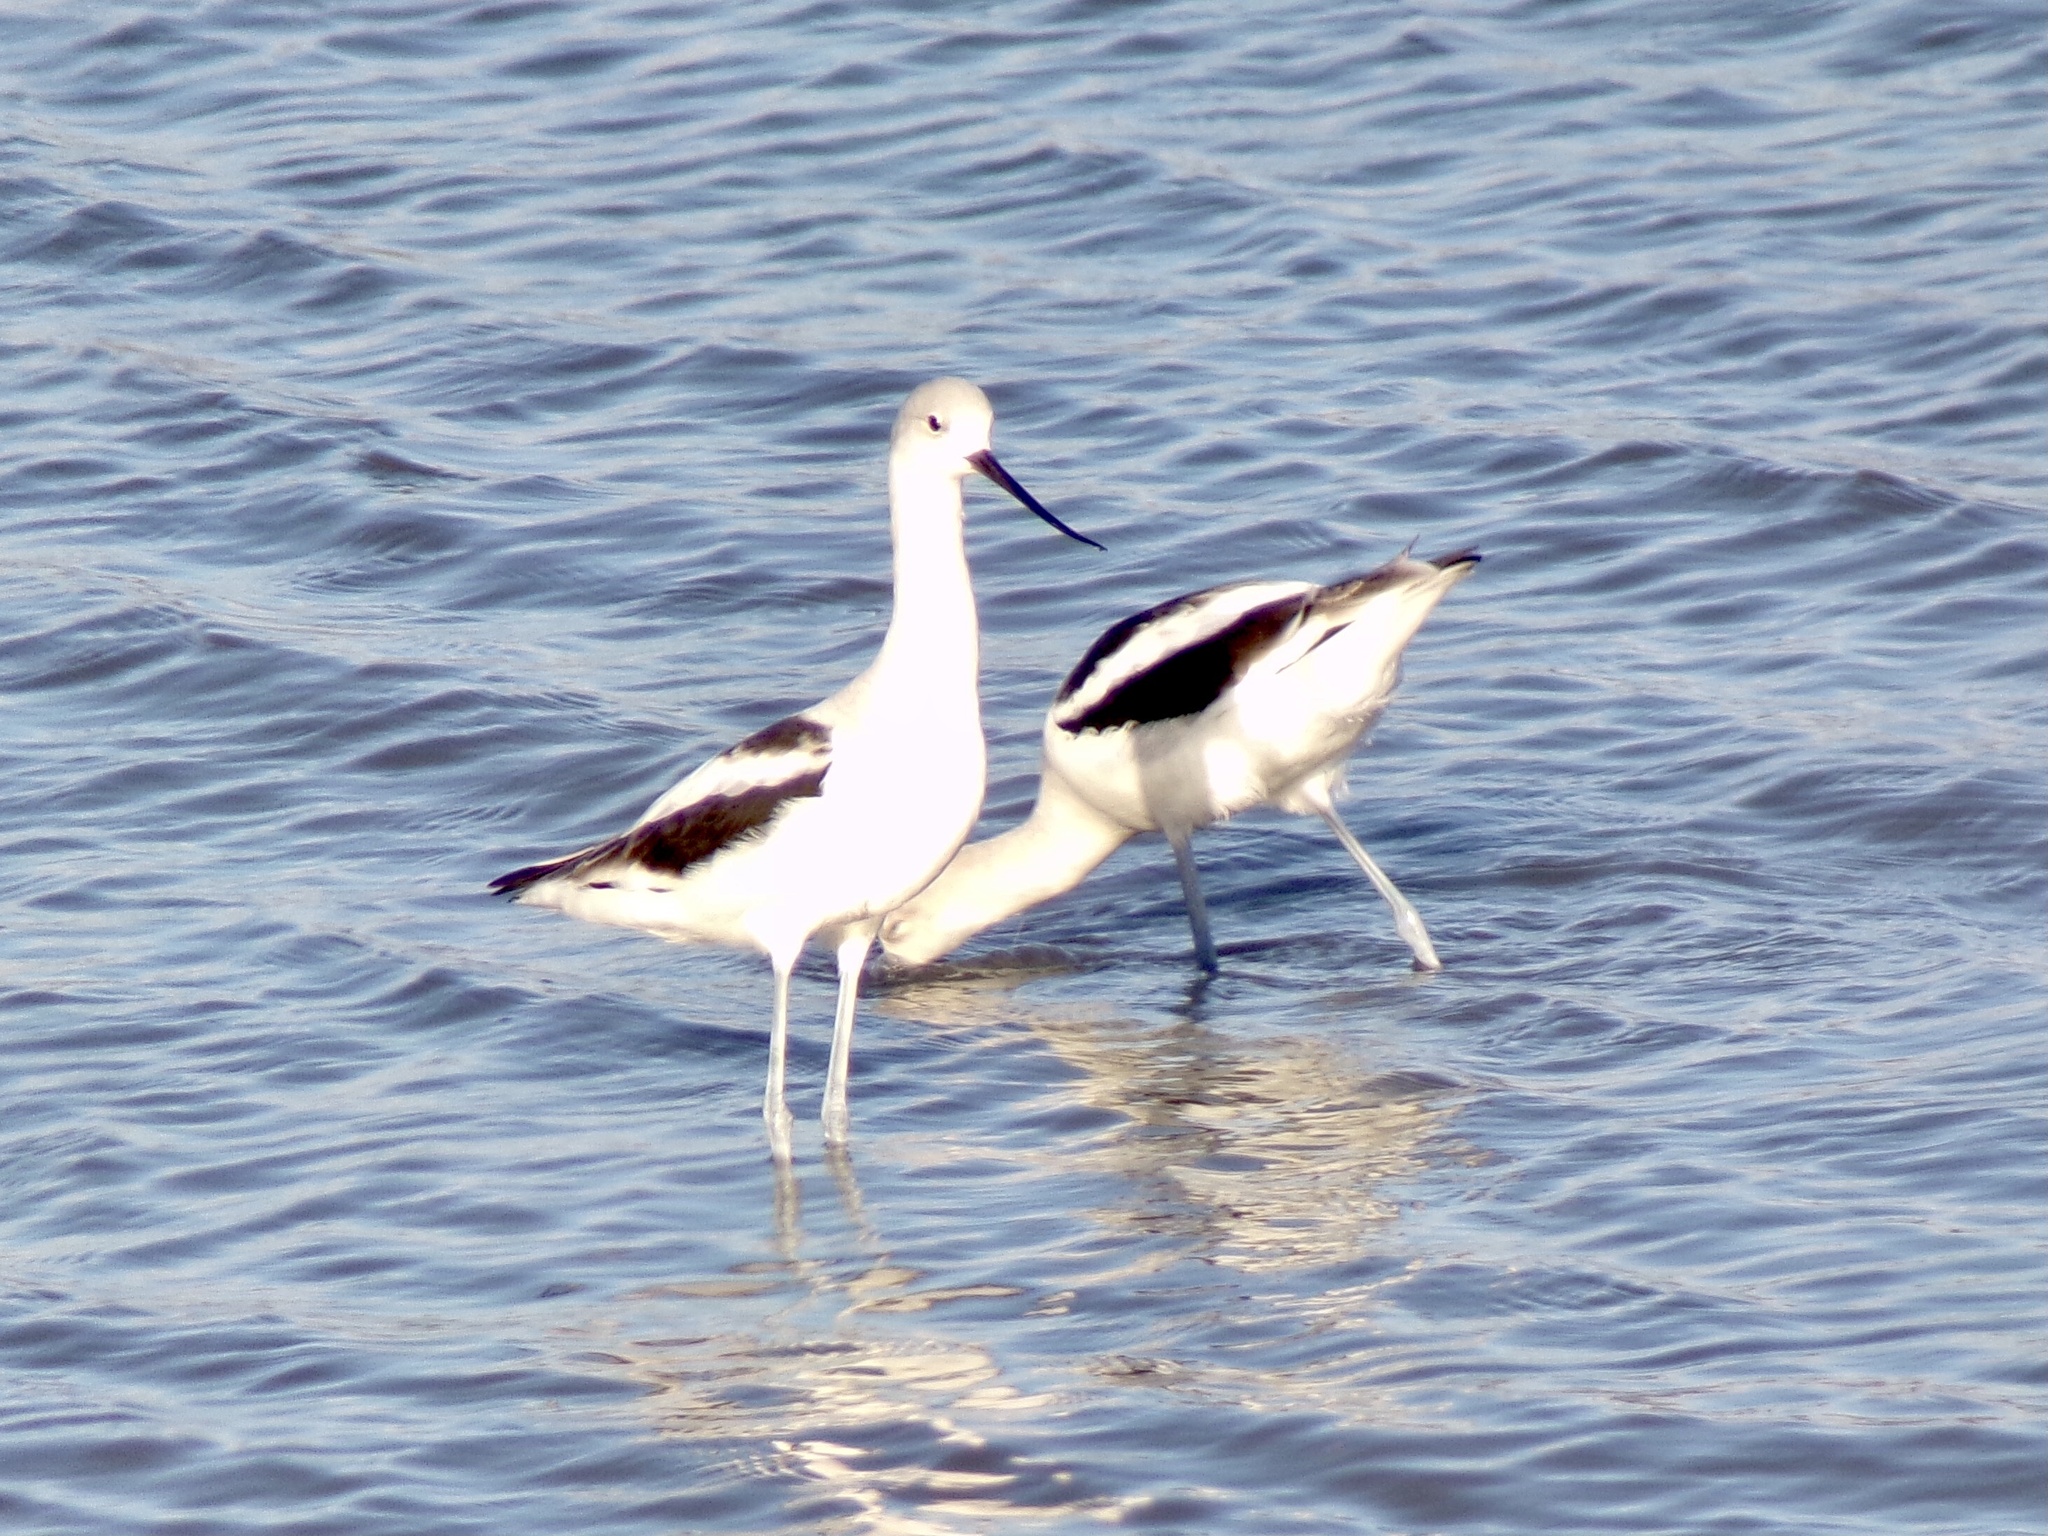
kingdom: Animalia
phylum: Chordata
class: Aves
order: Charadriiformes
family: Recurvirostridae
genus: Recurvirostra
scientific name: Recurvirostra americana
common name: American avocet
